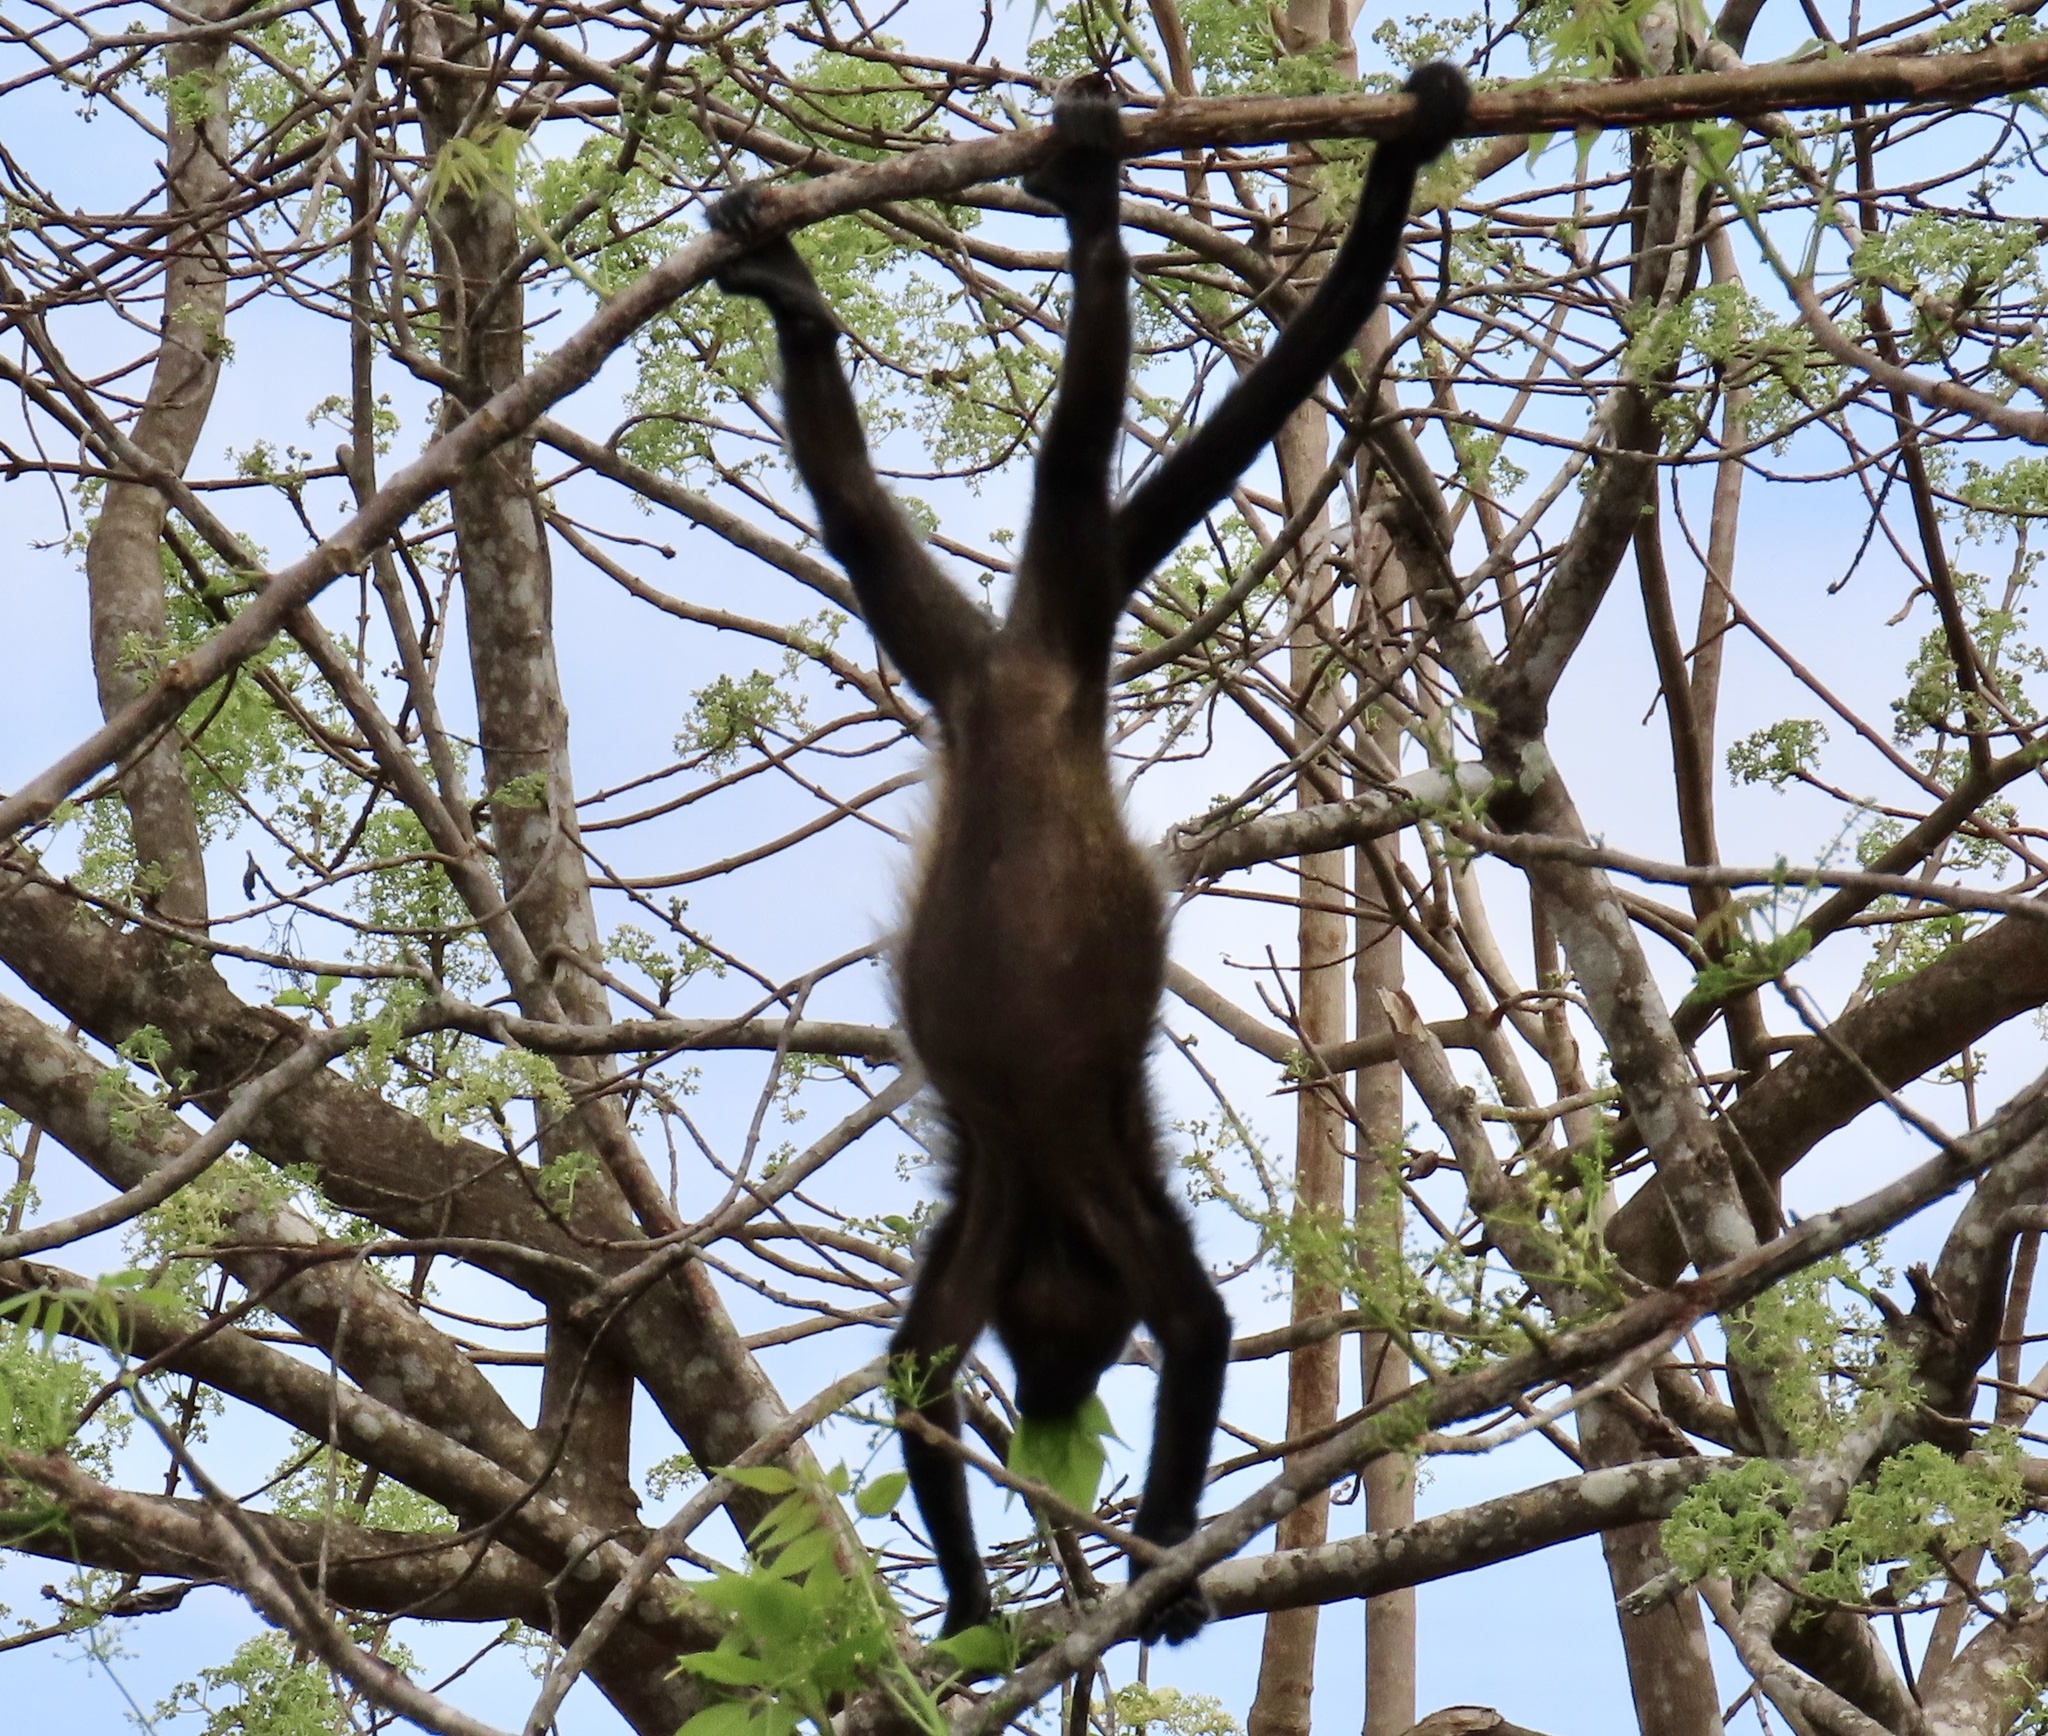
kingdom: Animalia
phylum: Chordata
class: Mammalia
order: Primates
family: Atelidae
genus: Alouatta
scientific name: Alouatta palliata
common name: Mantled howler
